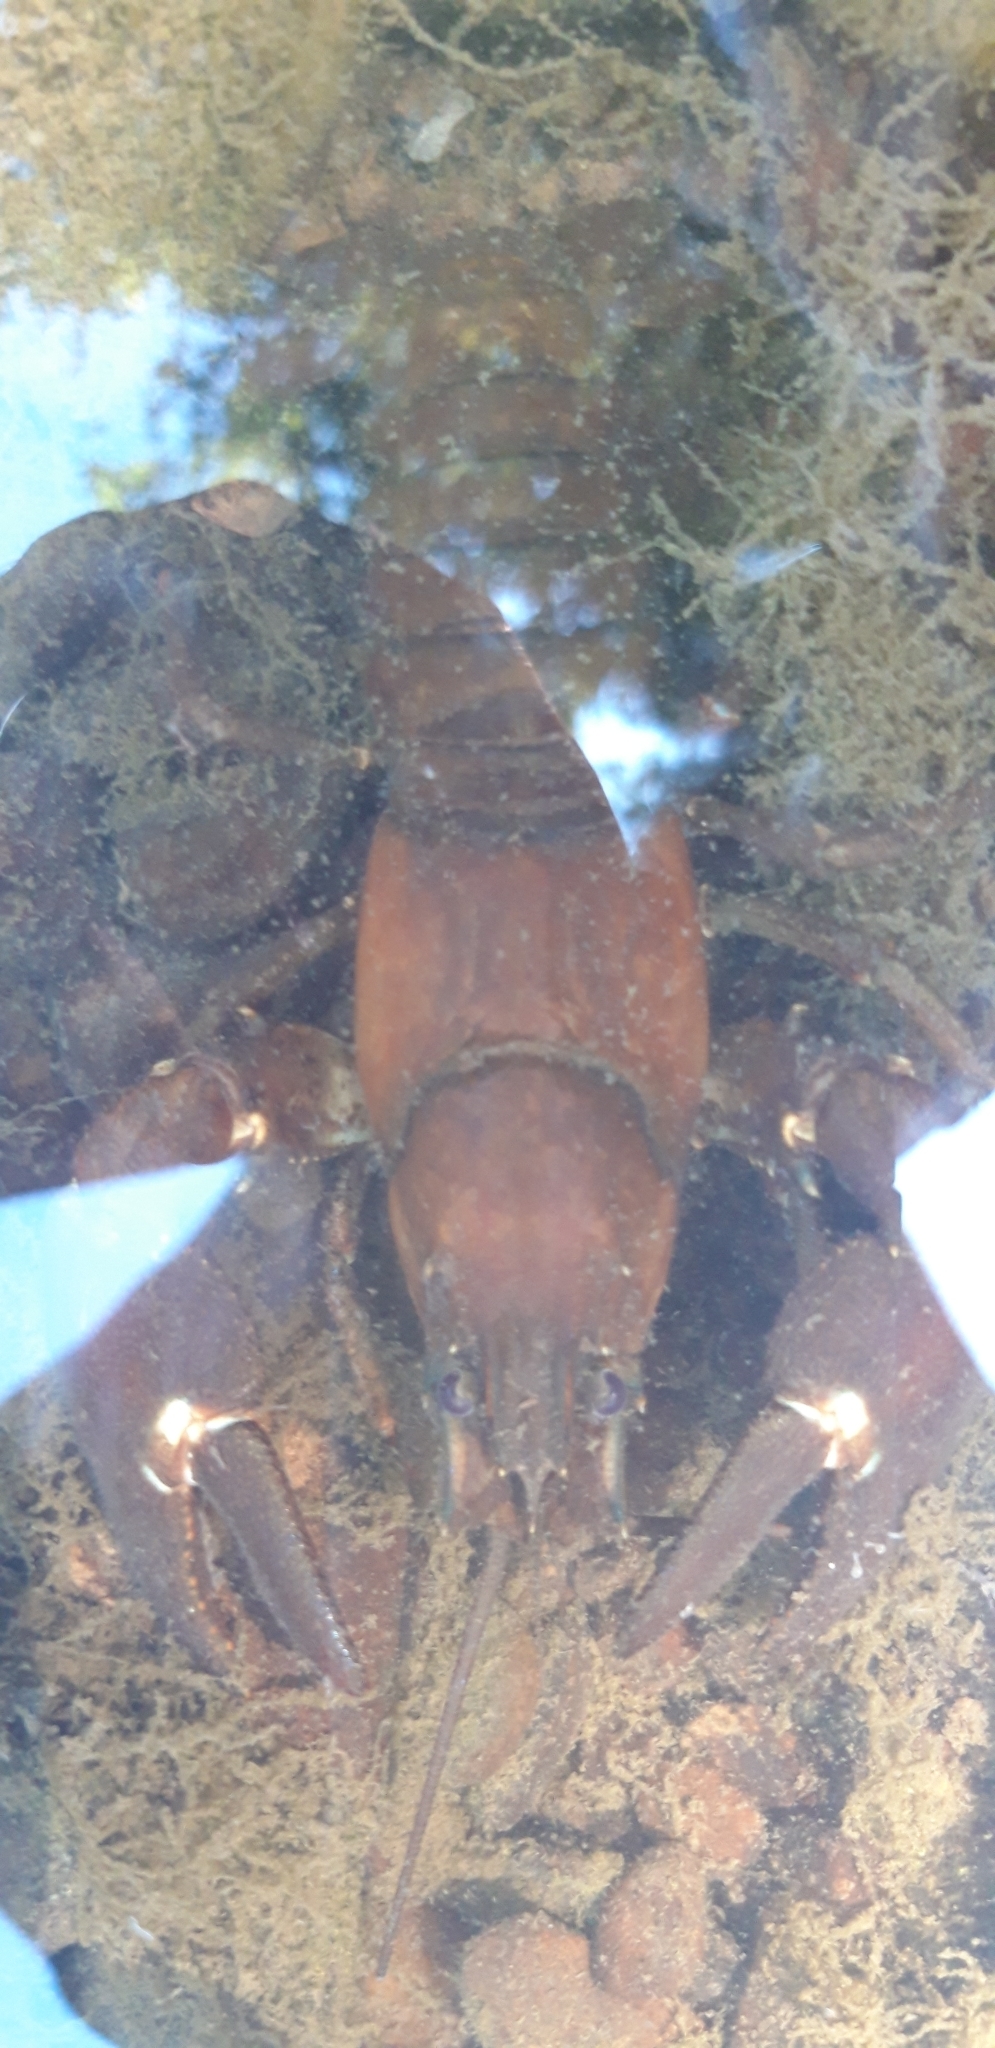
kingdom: Animalia
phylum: Arthropoda
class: Malacostraca
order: Decapoda
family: Astacidae
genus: Pacifastacus
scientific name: Pacifastacus leniusculus
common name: Signal crayfish
